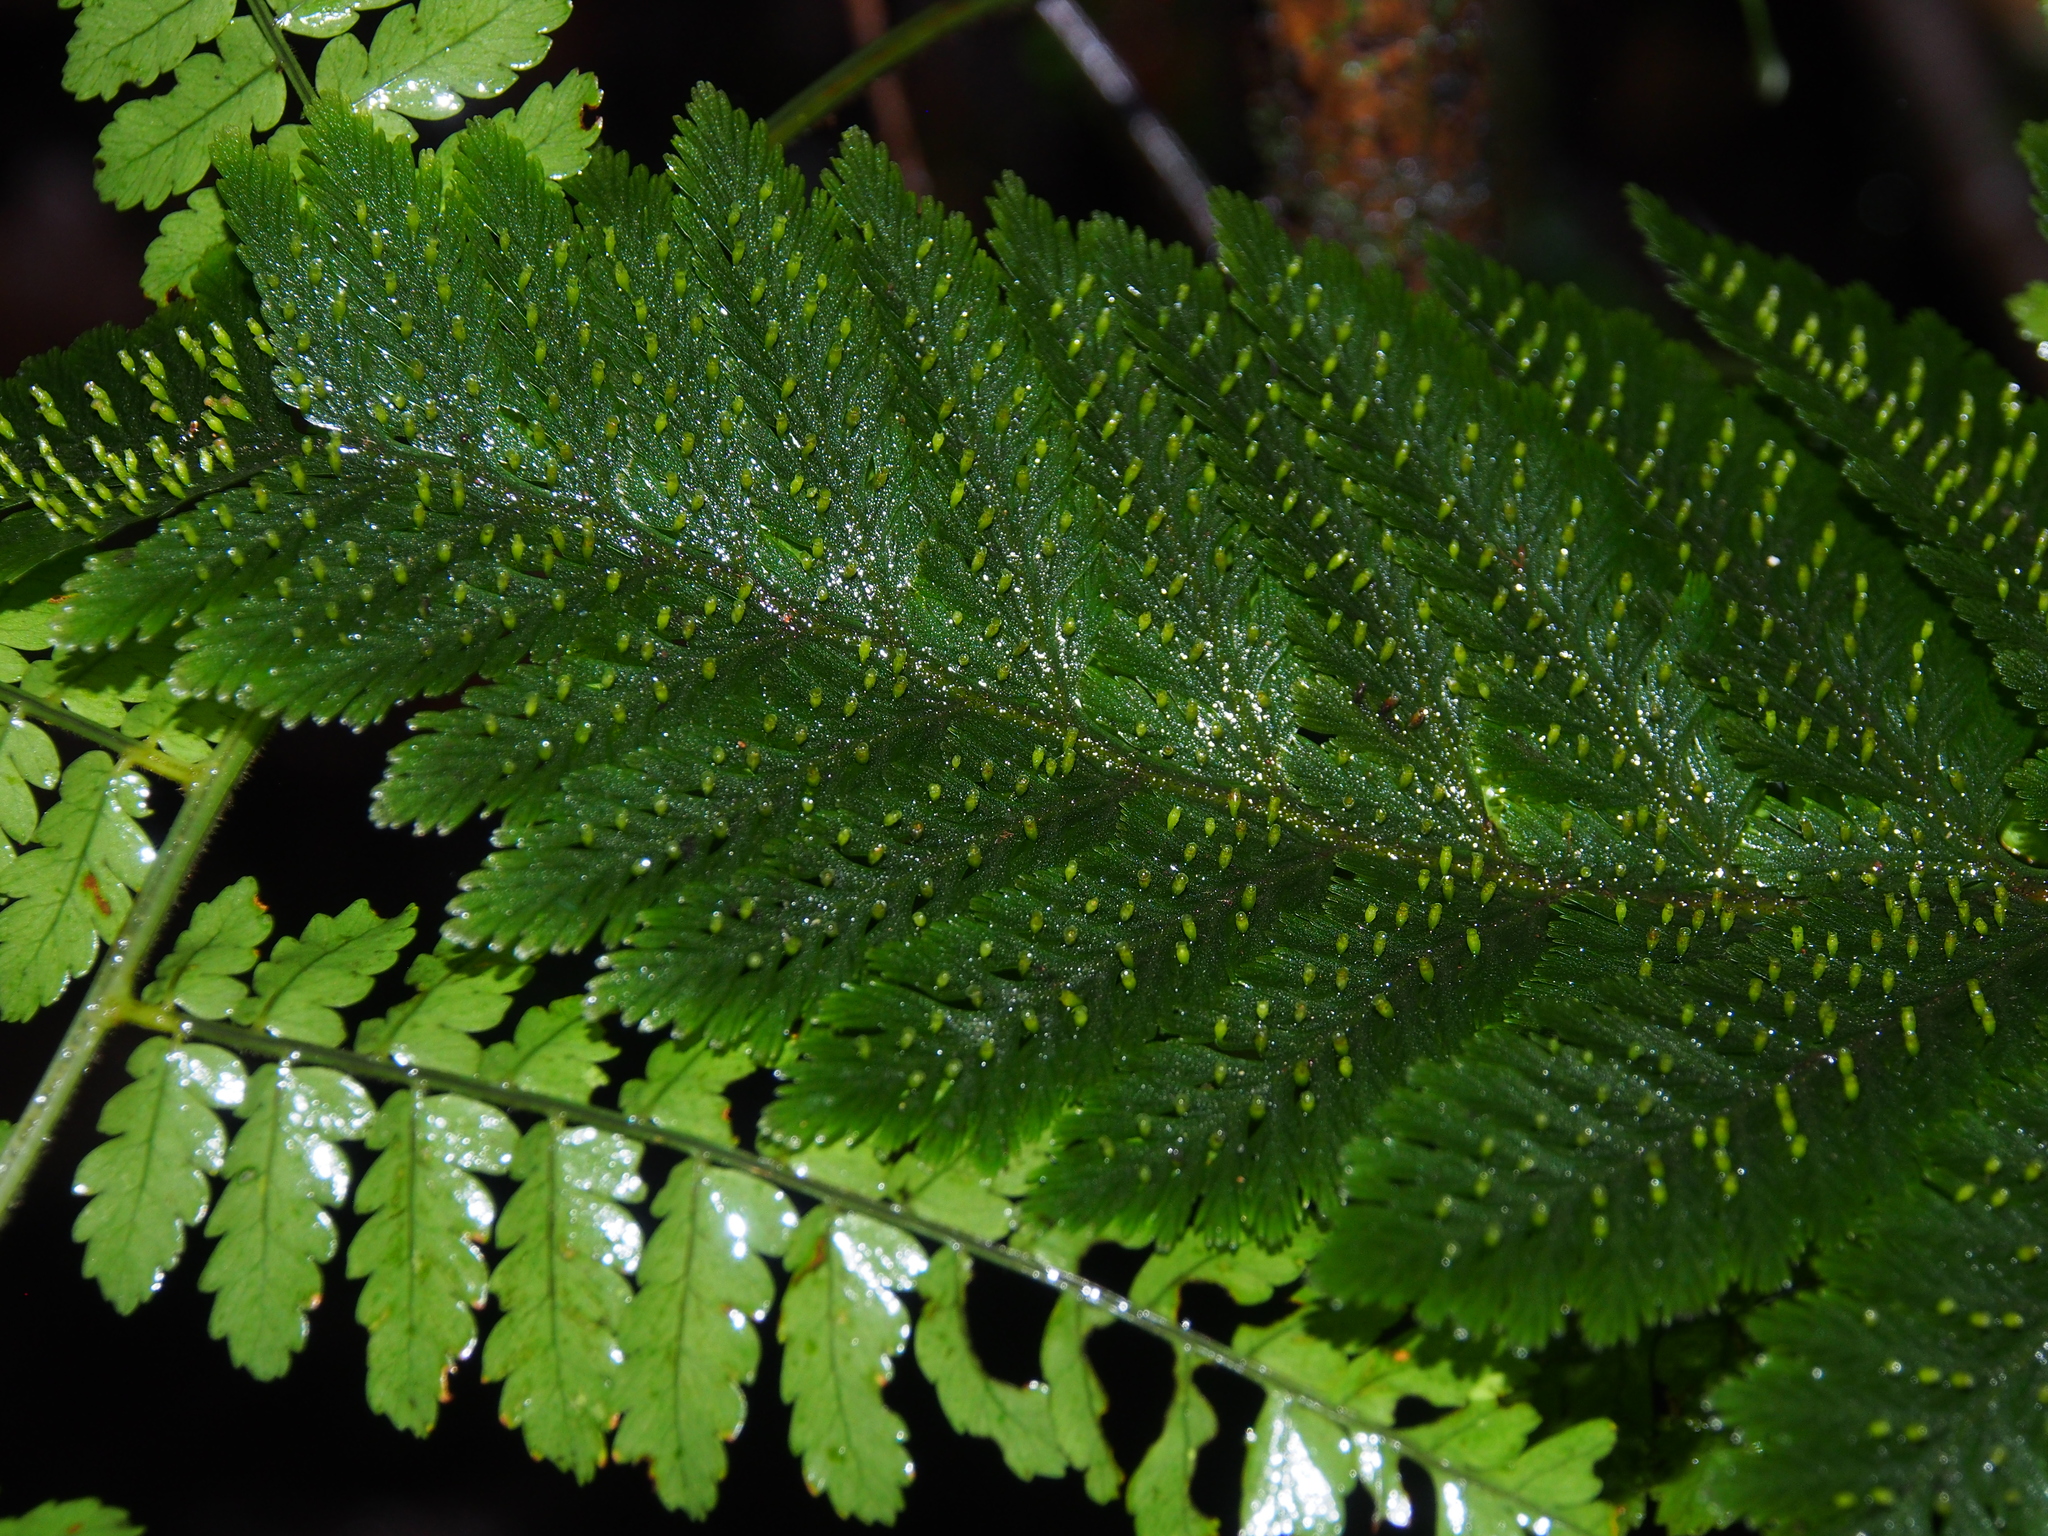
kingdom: Plantae
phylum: Tracheophyta
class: Polypodiopsida
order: Hymenophyllales
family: Hymenophyllaceae
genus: Trichomanes
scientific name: Trichomanes elegans
